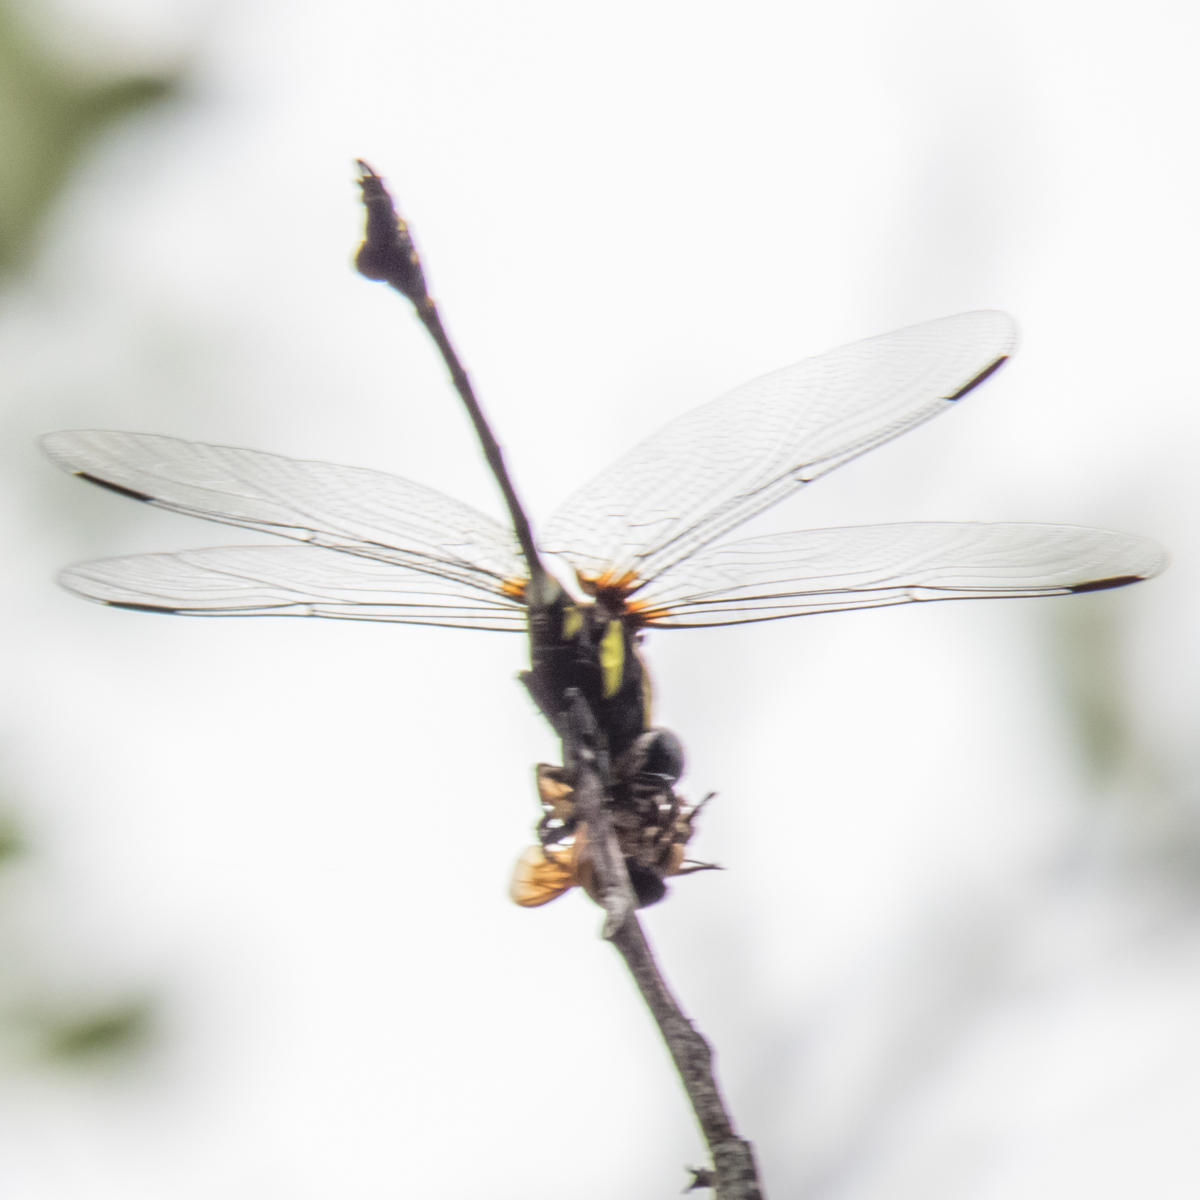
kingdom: Animalia
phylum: Arthropoda
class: Insecta
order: Odonata
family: Gomphidae
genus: Ictinogomphus
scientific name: Ictinogomphus decoratus
